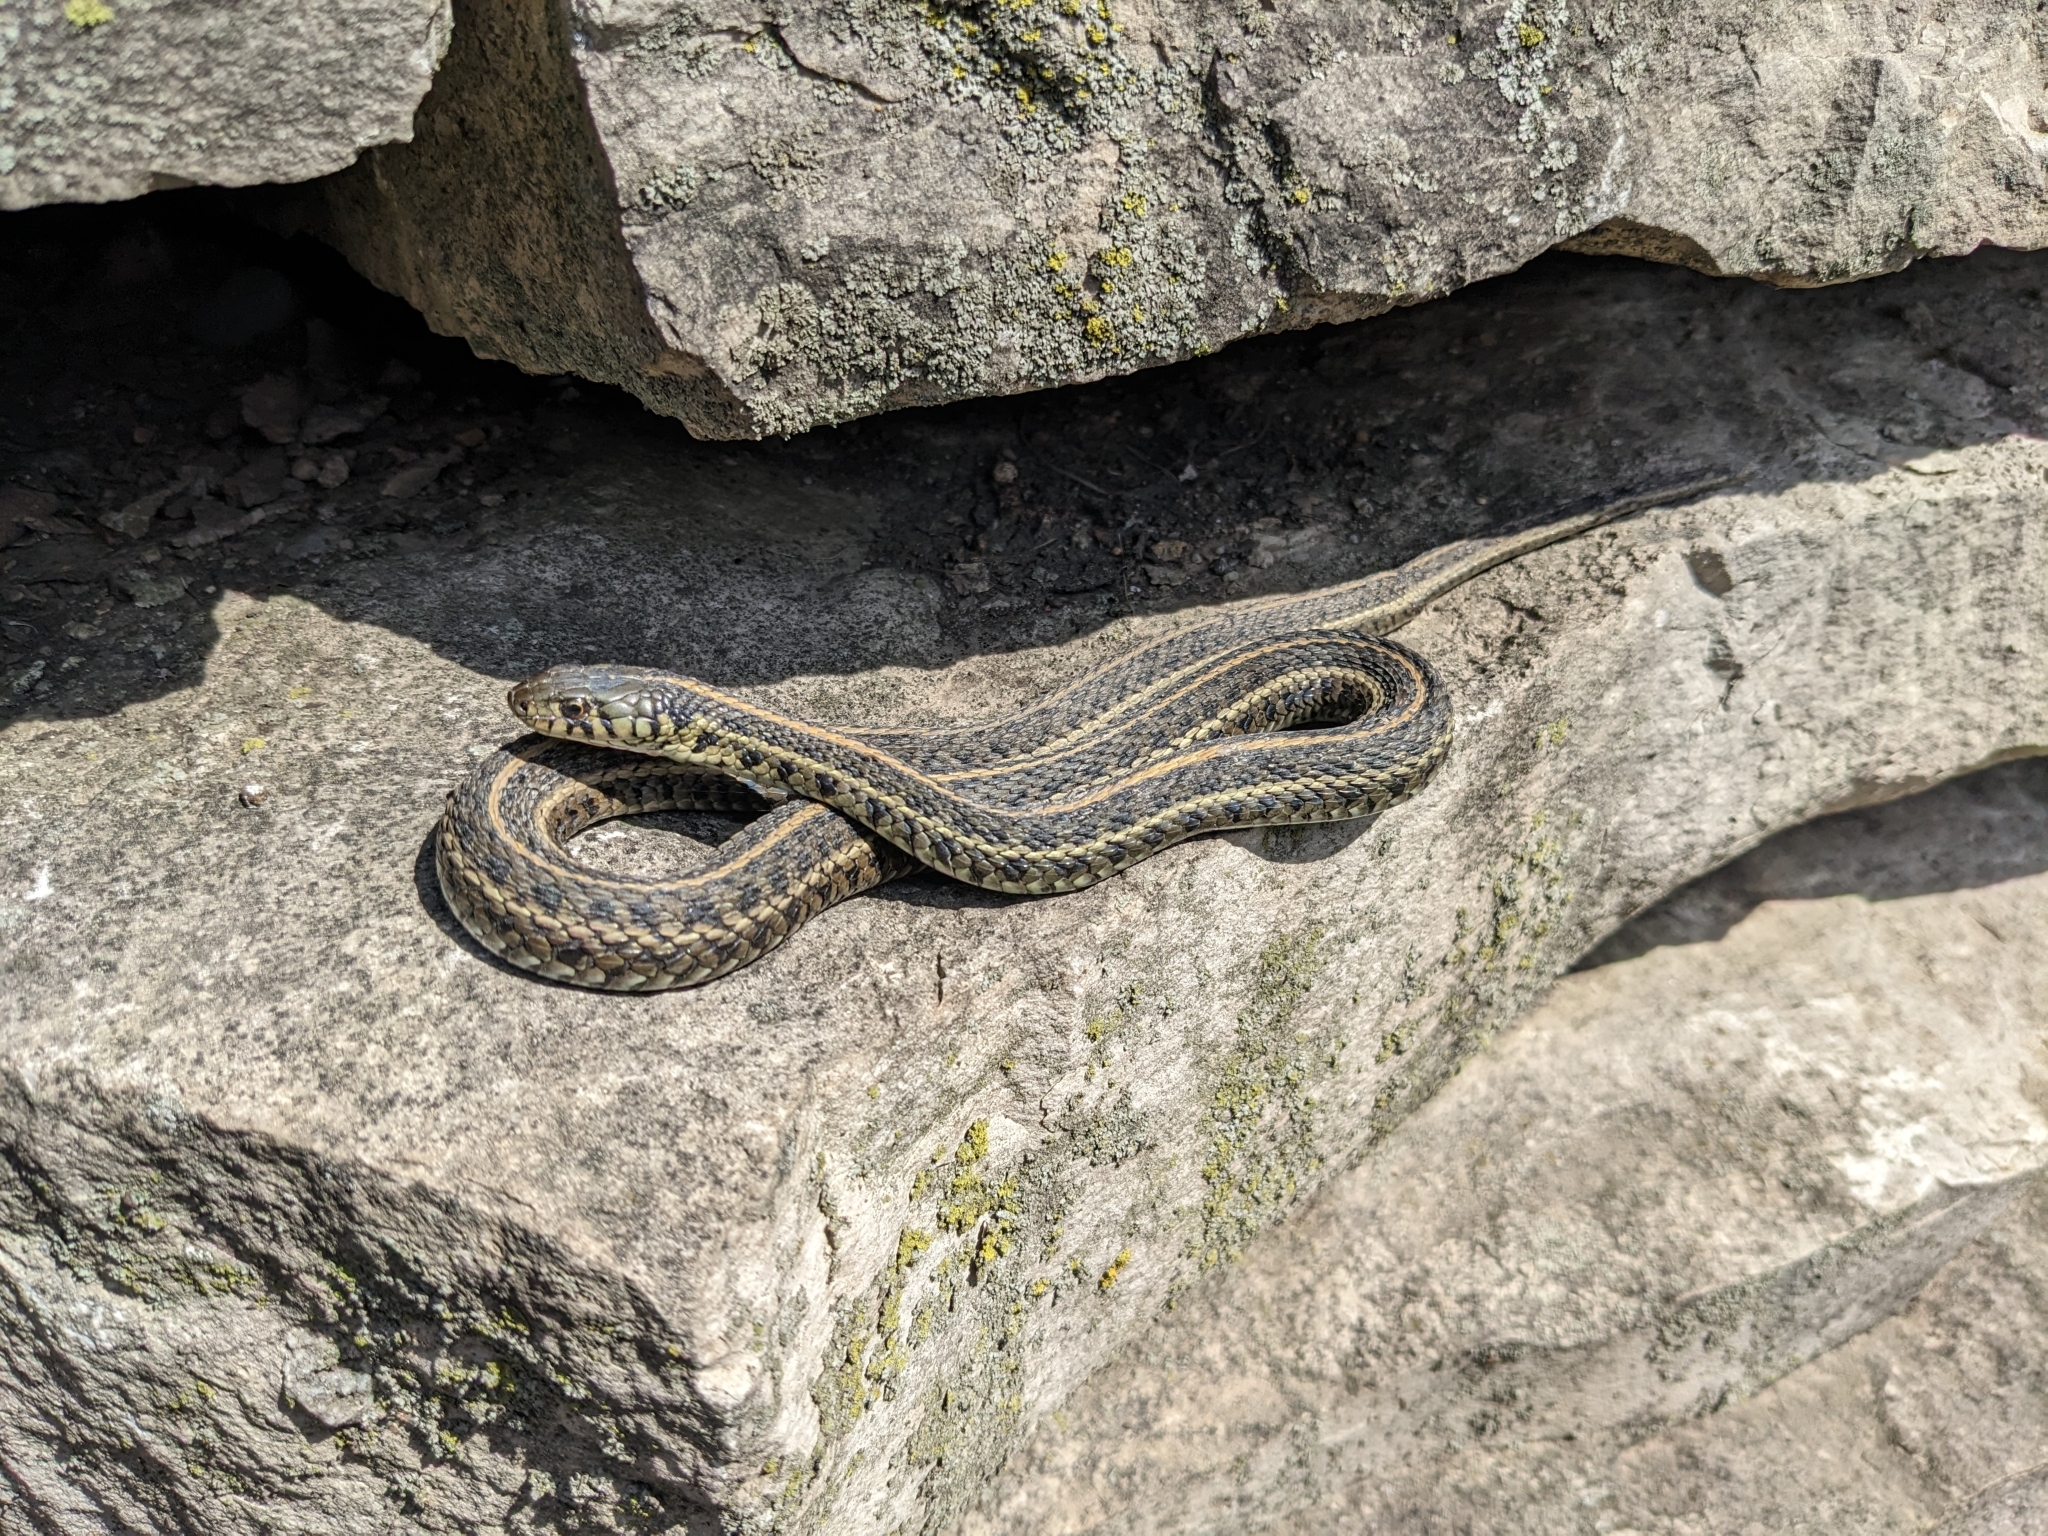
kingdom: Animalia
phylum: Chordata
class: Squamata
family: Colubridae
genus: Thamnophis
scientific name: Thamnophis radix
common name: Plains garter snake
